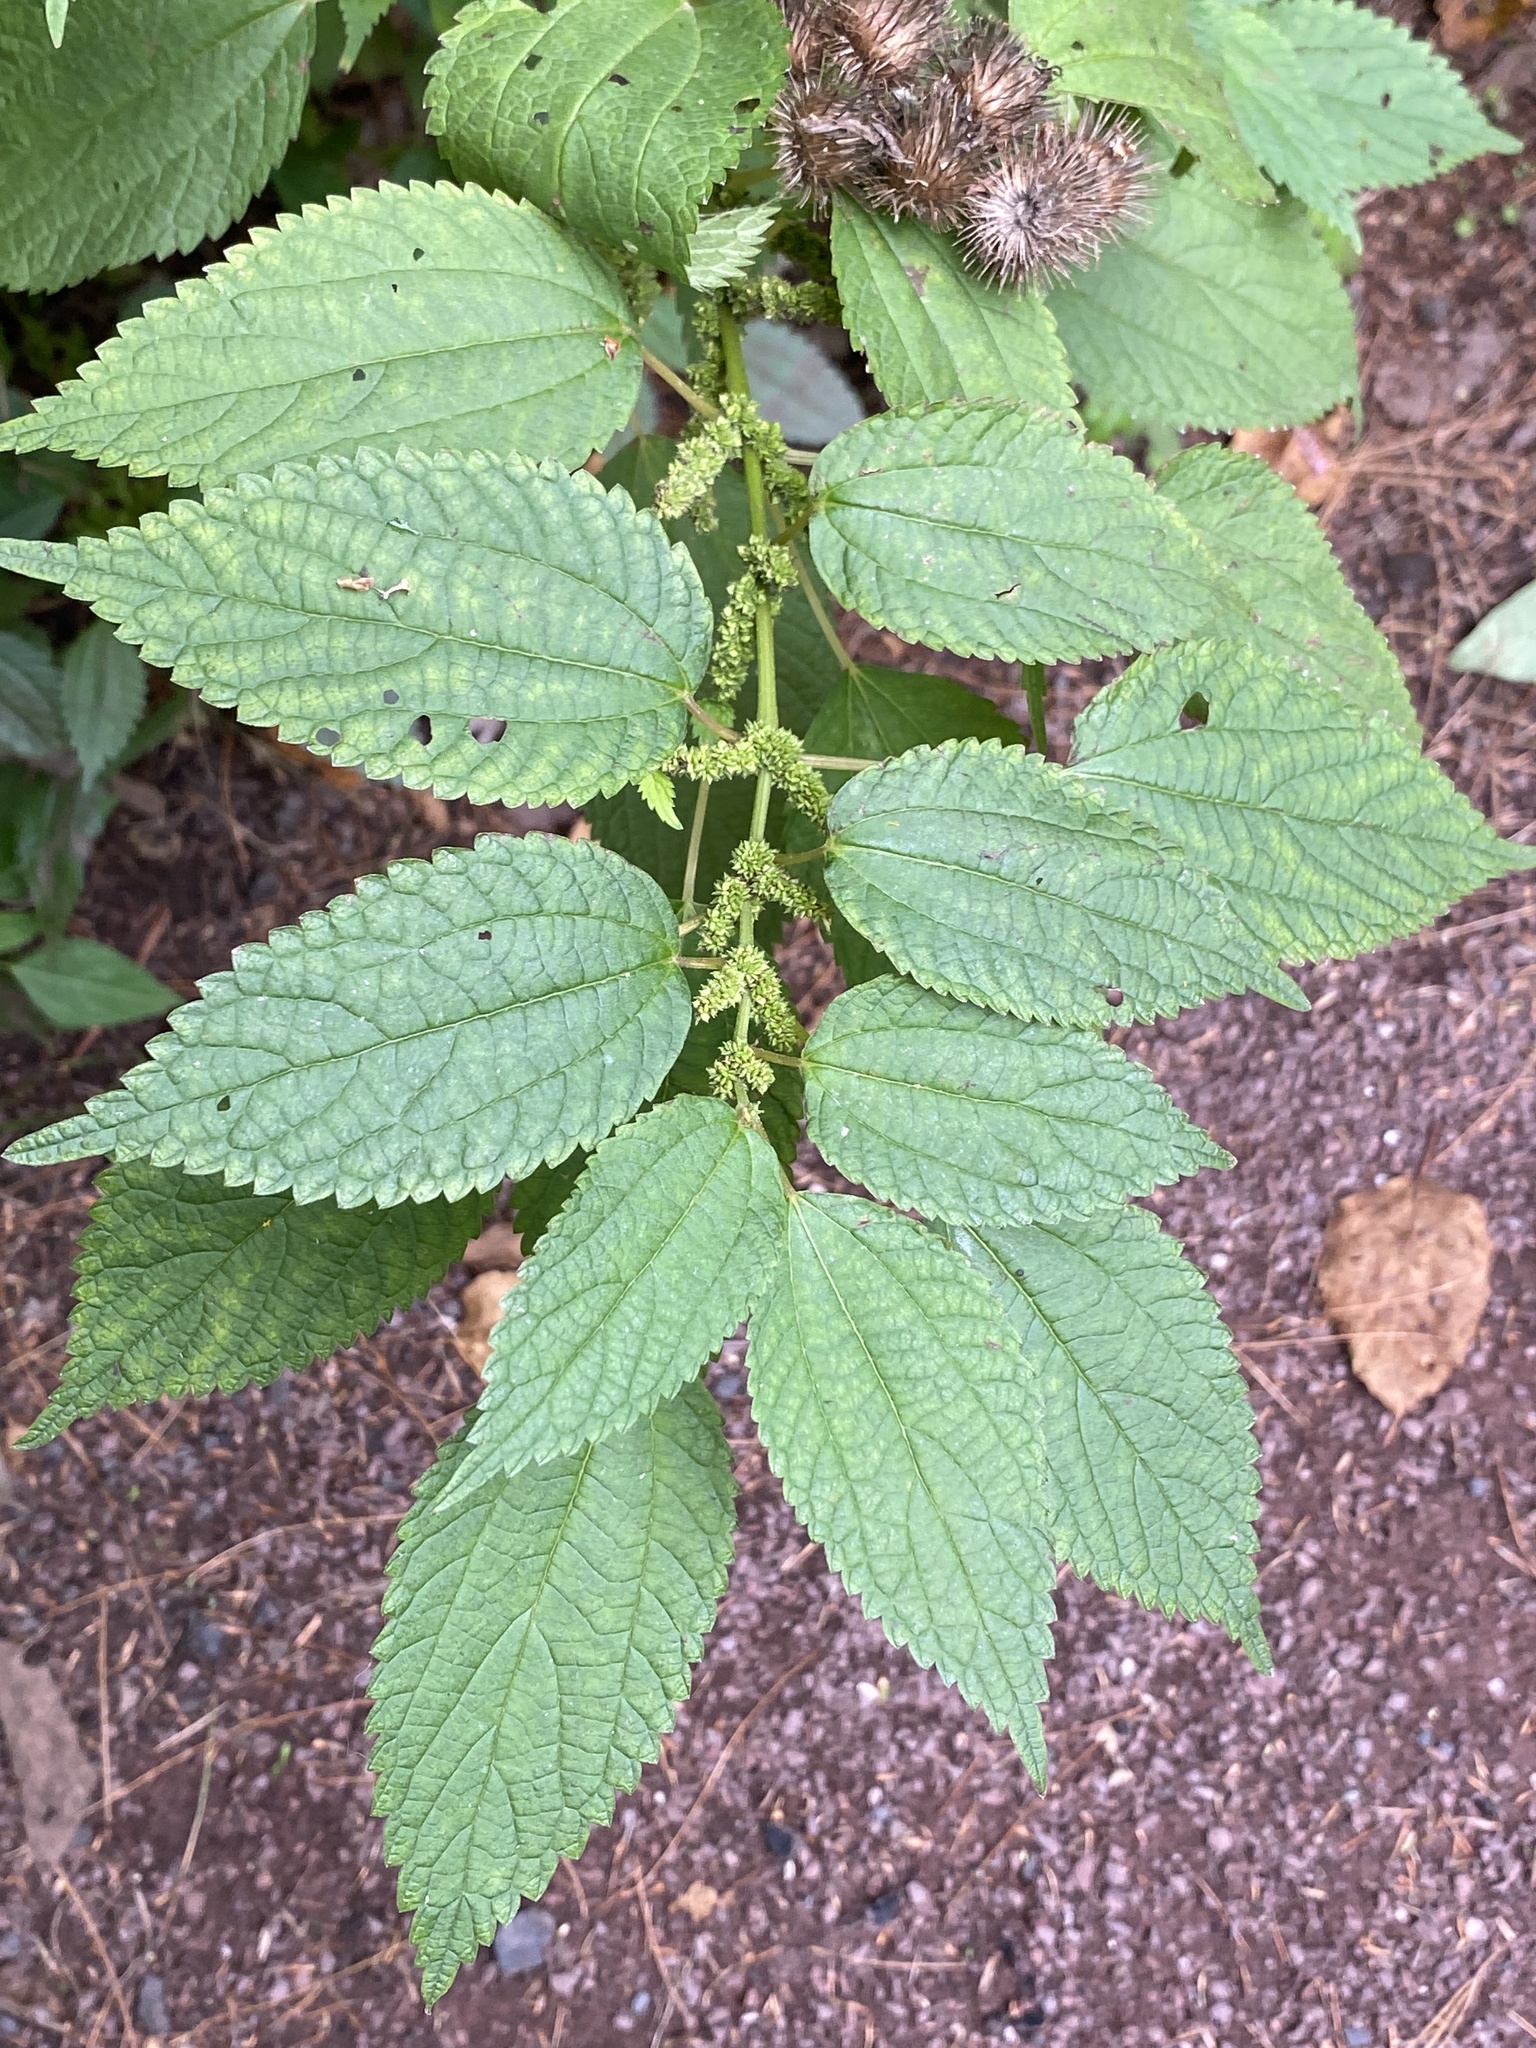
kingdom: Plantae
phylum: Tracheophyta
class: Magnoliopsida
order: Rosales
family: Urticaceae
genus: Boehmeria
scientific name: Boehmeria cylindrica
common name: Bog-hemp
